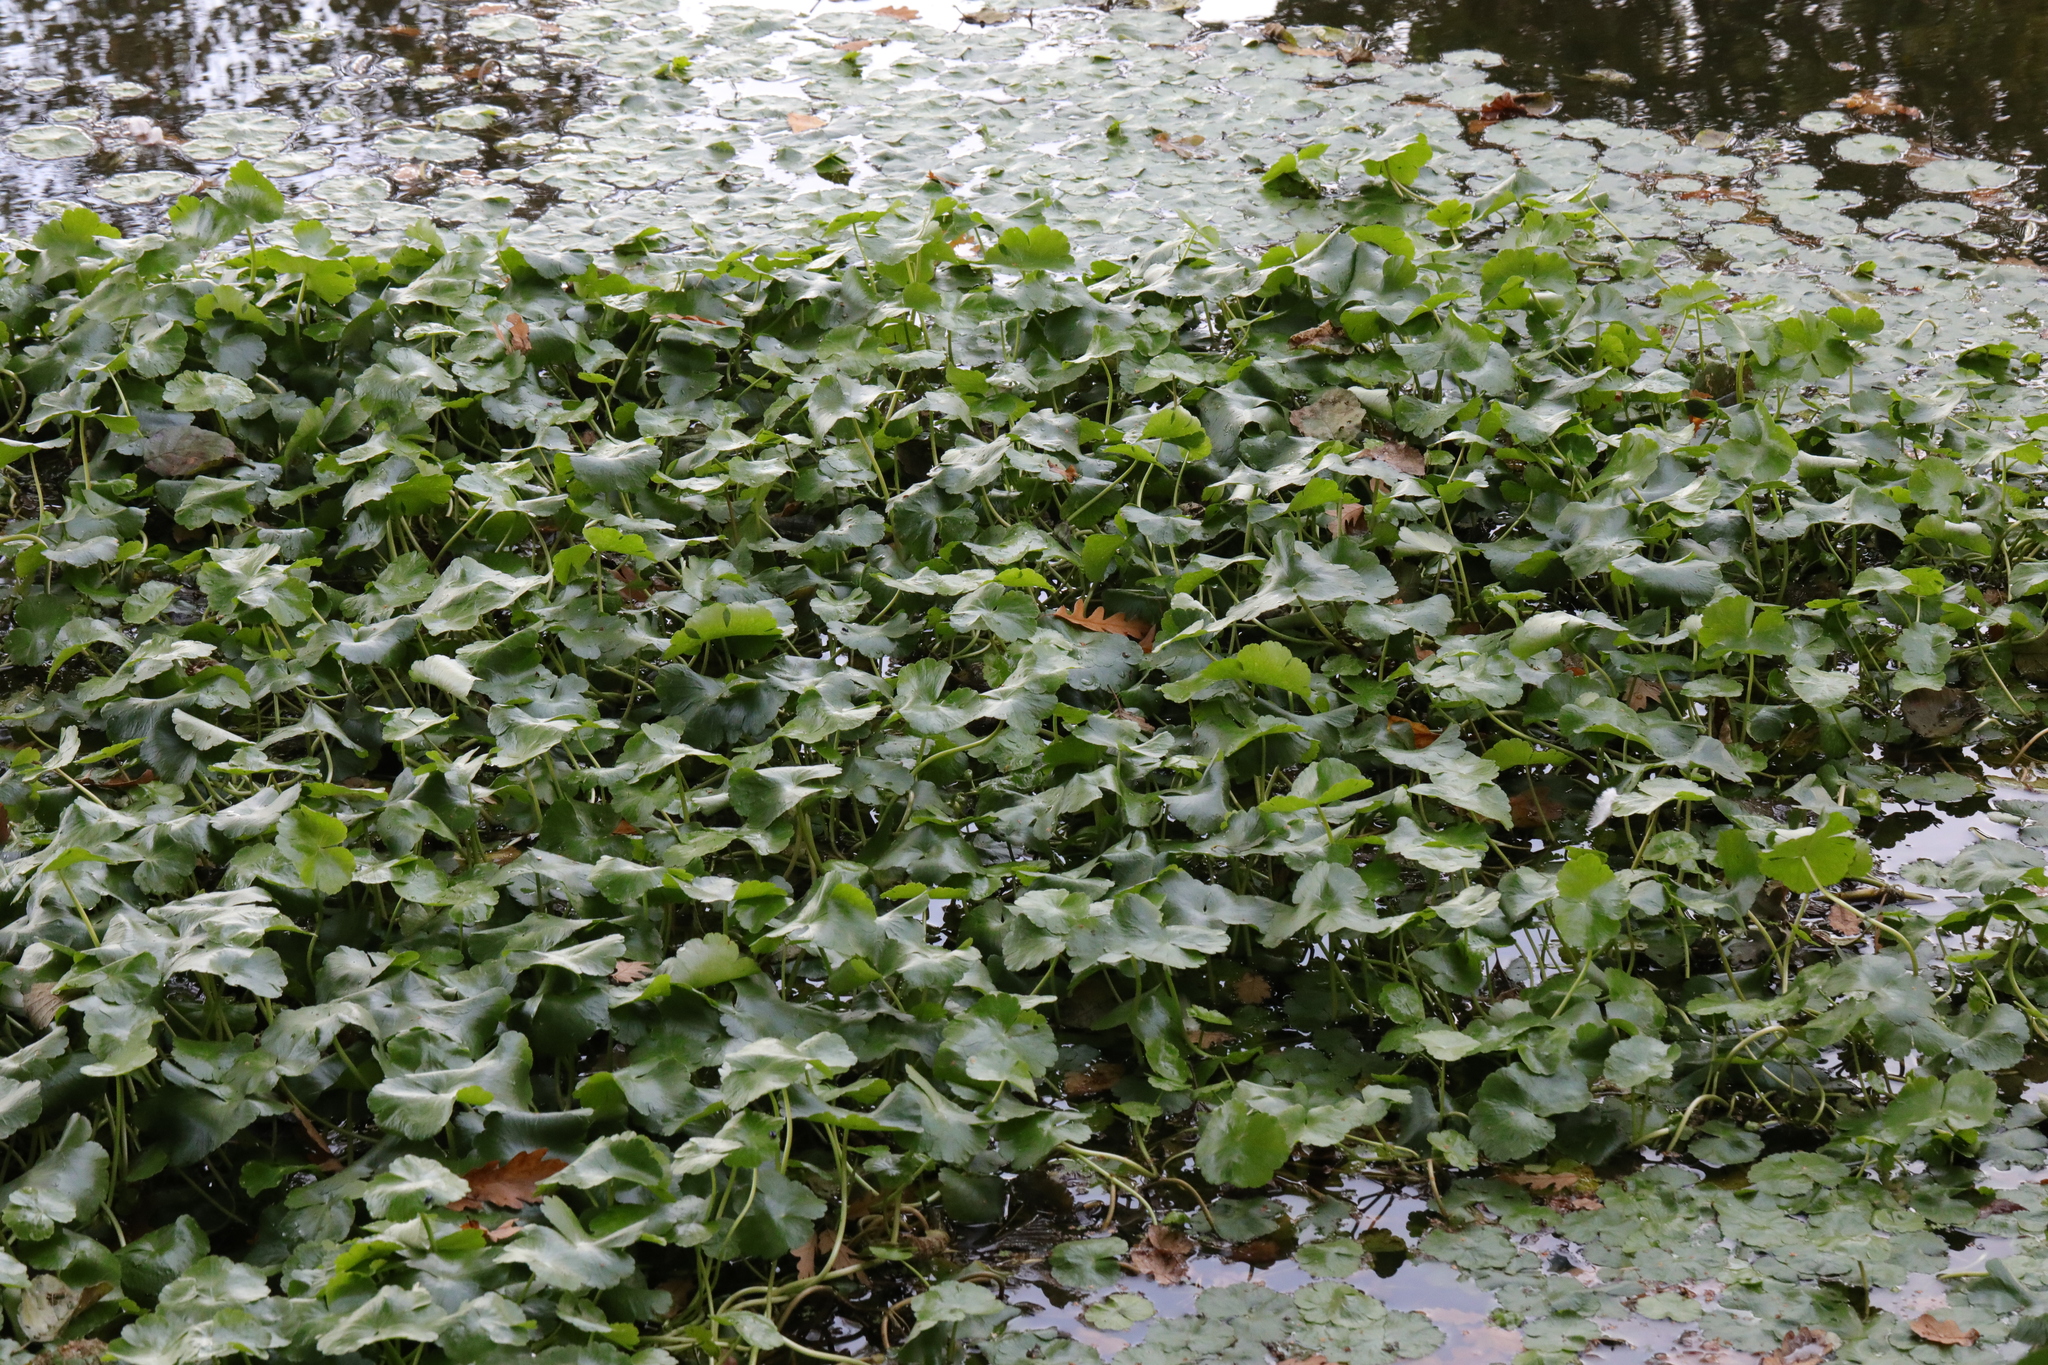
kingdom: Plantae
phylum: Tracheophyta
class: Magnoliopsida
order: Apiales
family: Araliaceae
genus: Hydrocotyle
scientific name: Hydrocotyle ranunculoides
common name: Floating pennywort
